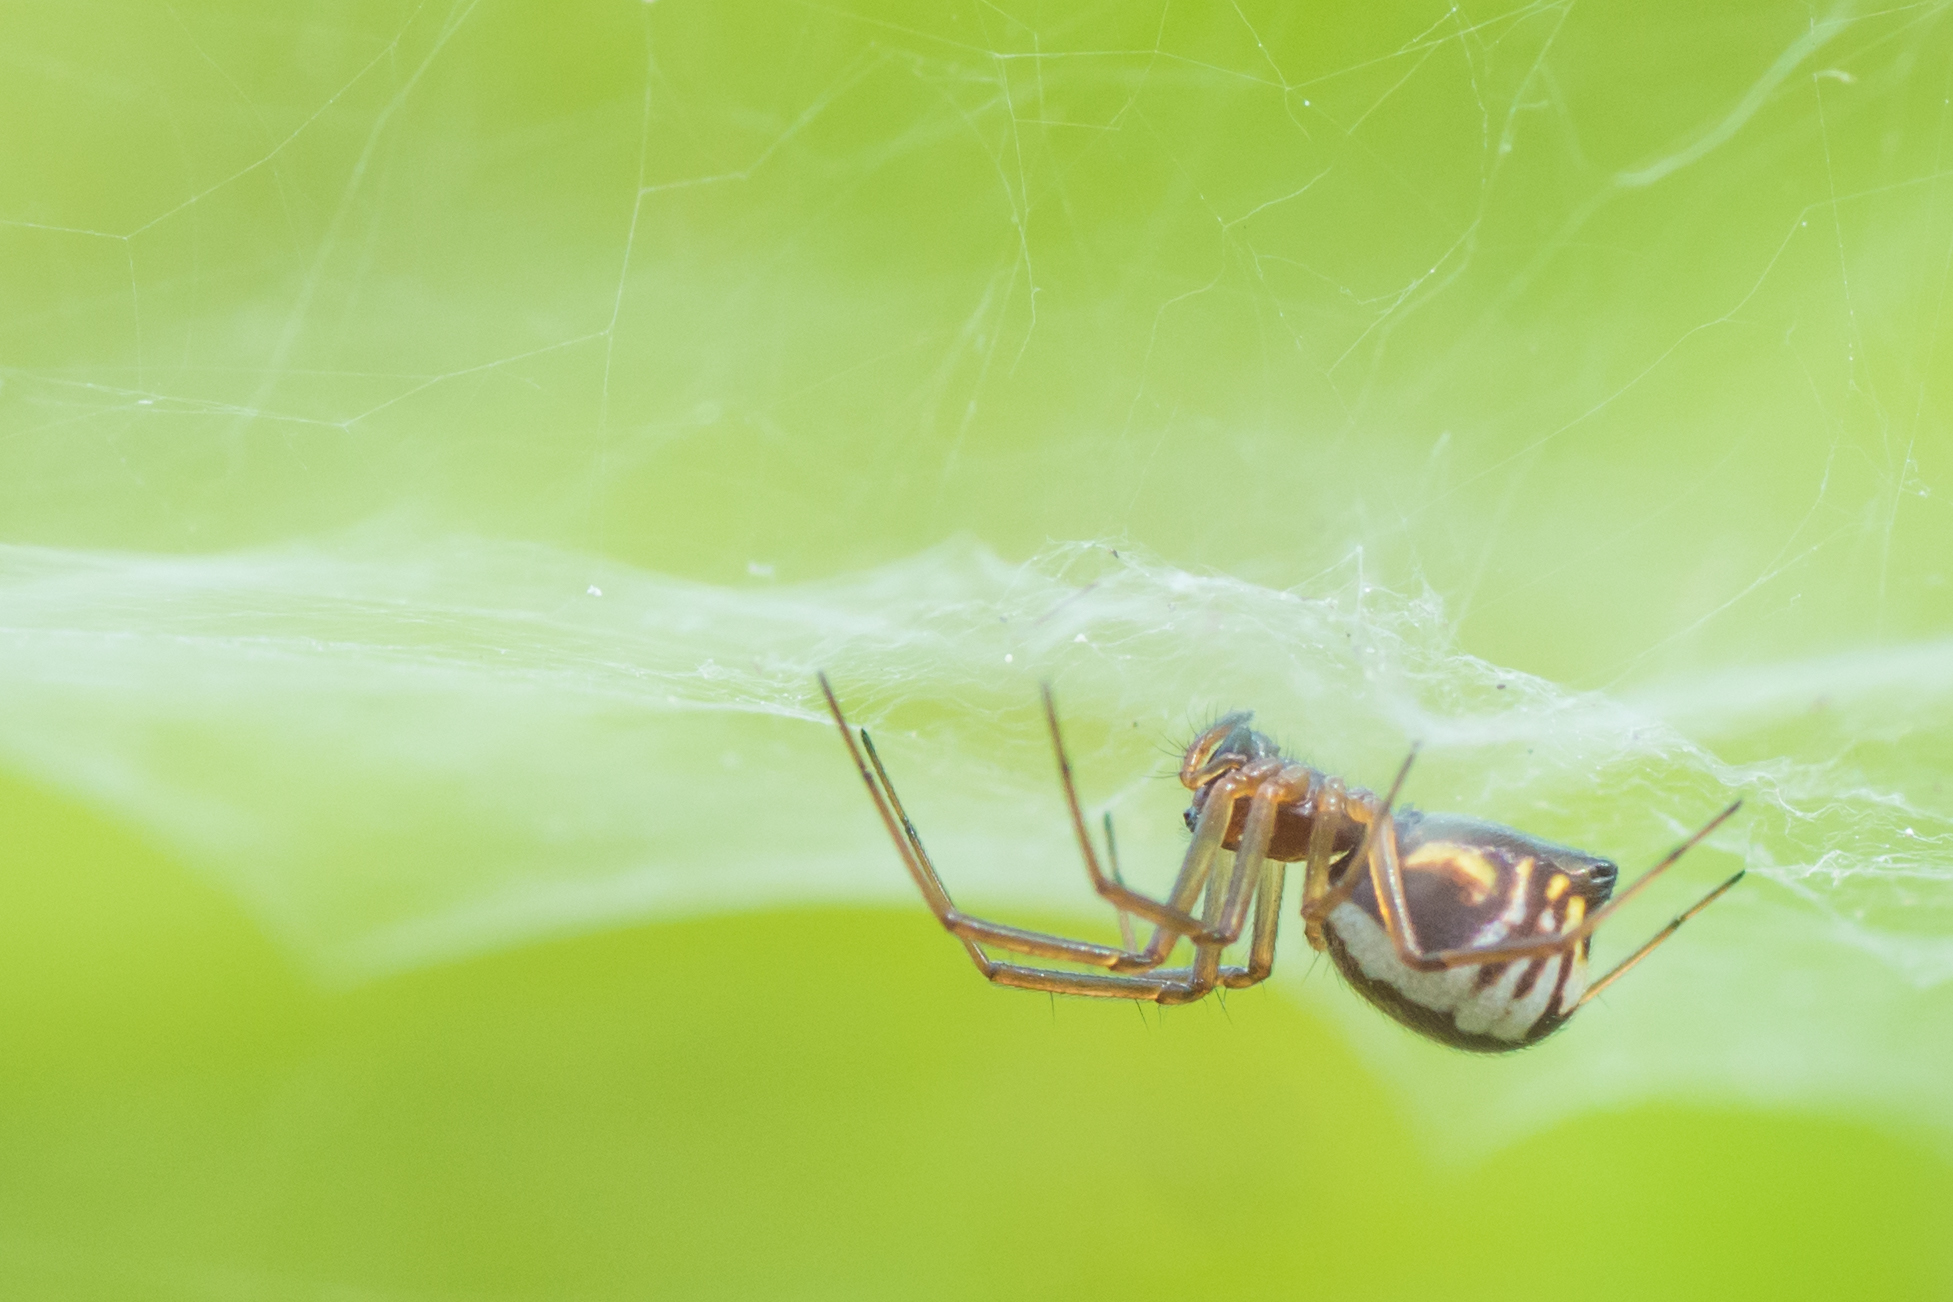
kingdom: Animalia
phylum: Arthropoda
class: Arachnida
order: Araneae
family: Linyphiidae
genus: Frontinella
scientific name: Frontinella pyramitela
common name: Bowl-and-doily spider
